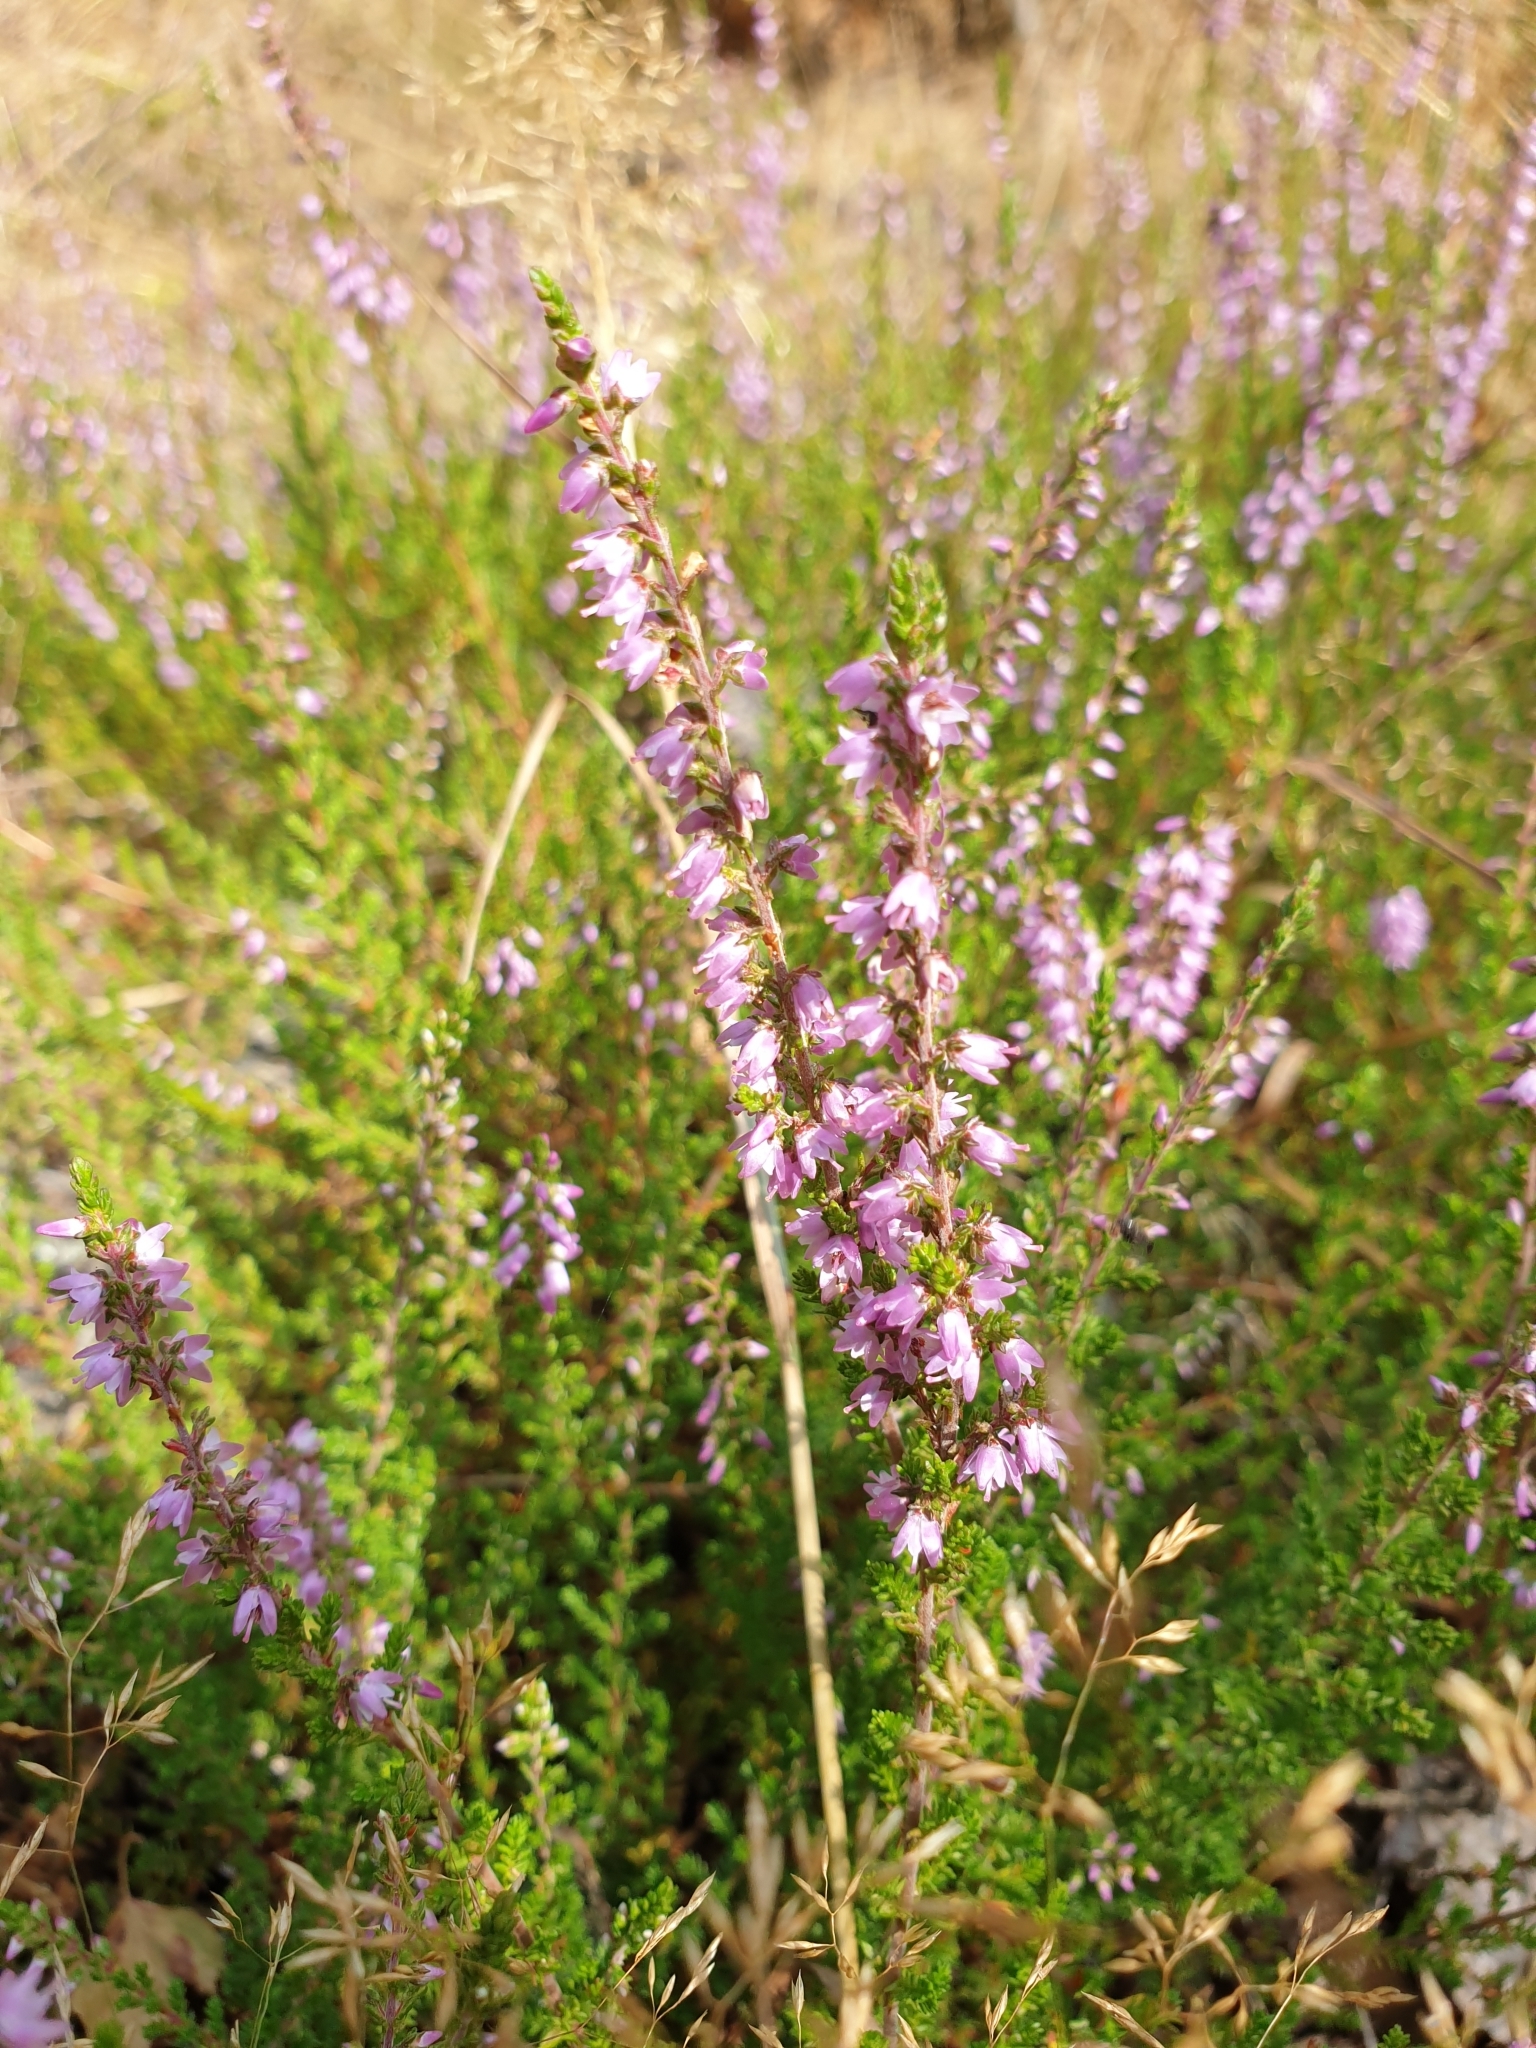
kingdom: Plantae
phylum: Tracheophyta
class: Magnoliopsida
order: Ericales
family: Ericaceae
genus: Calluna
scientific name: Calluna vulgaris
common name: Heather
